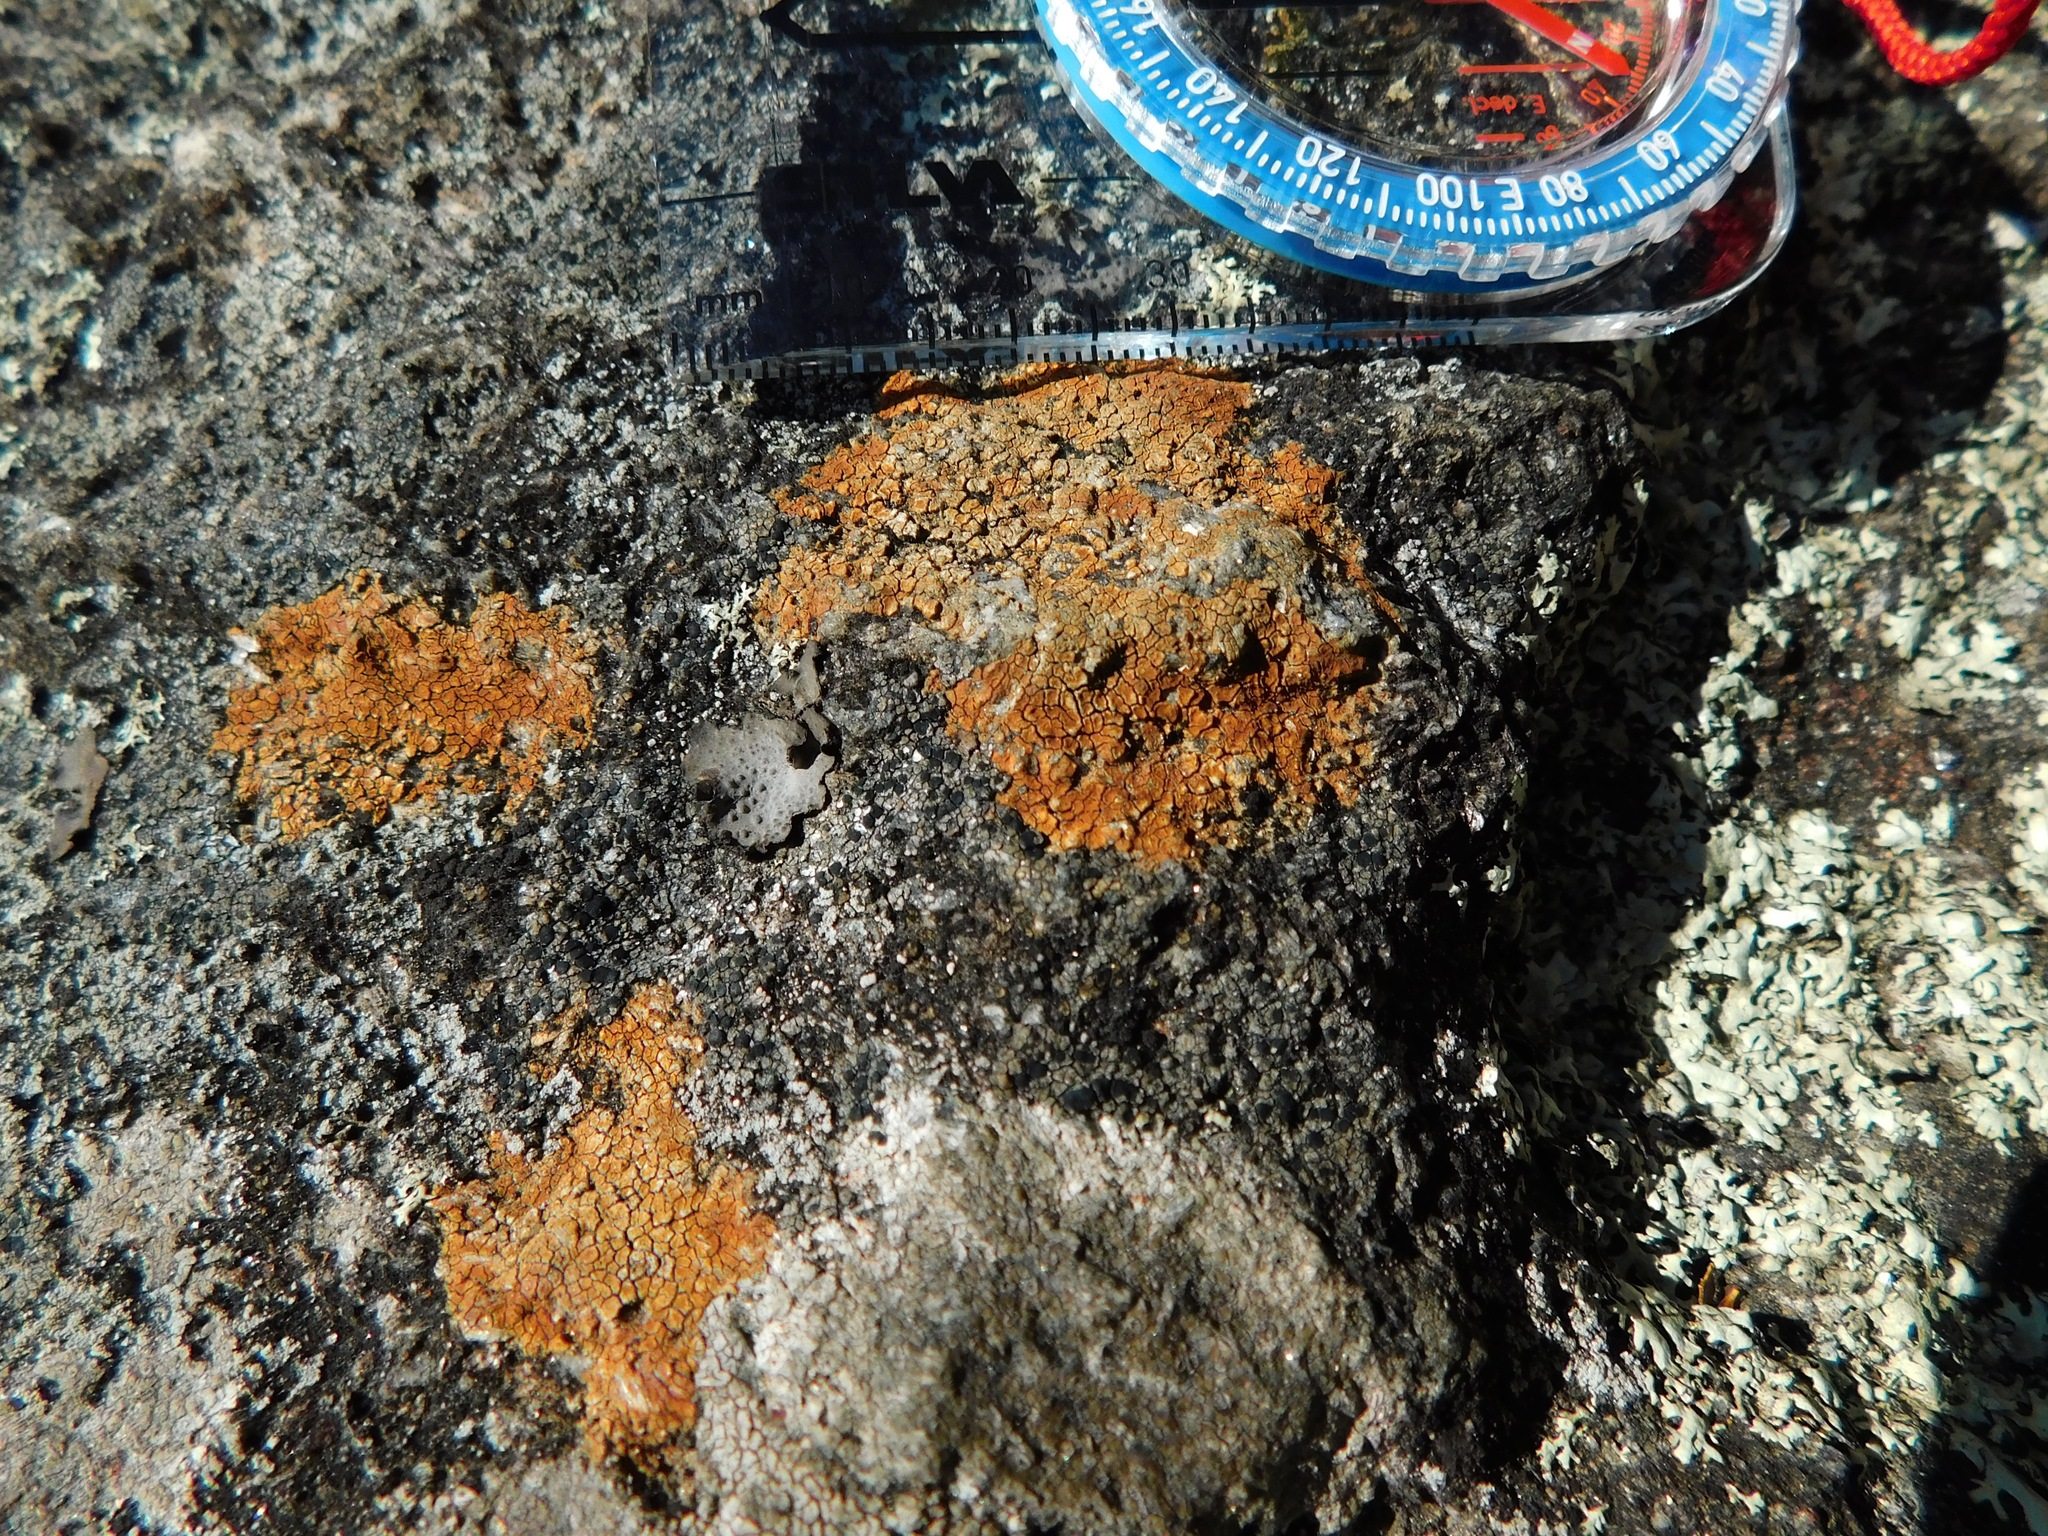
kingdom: Fungi
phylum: Ascomycota
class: Lecanoromycetes
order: Acarosporales
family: Acarosporaceae
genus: Acarospora
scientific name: Acarospora sinopica
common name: Sinoper lichen
